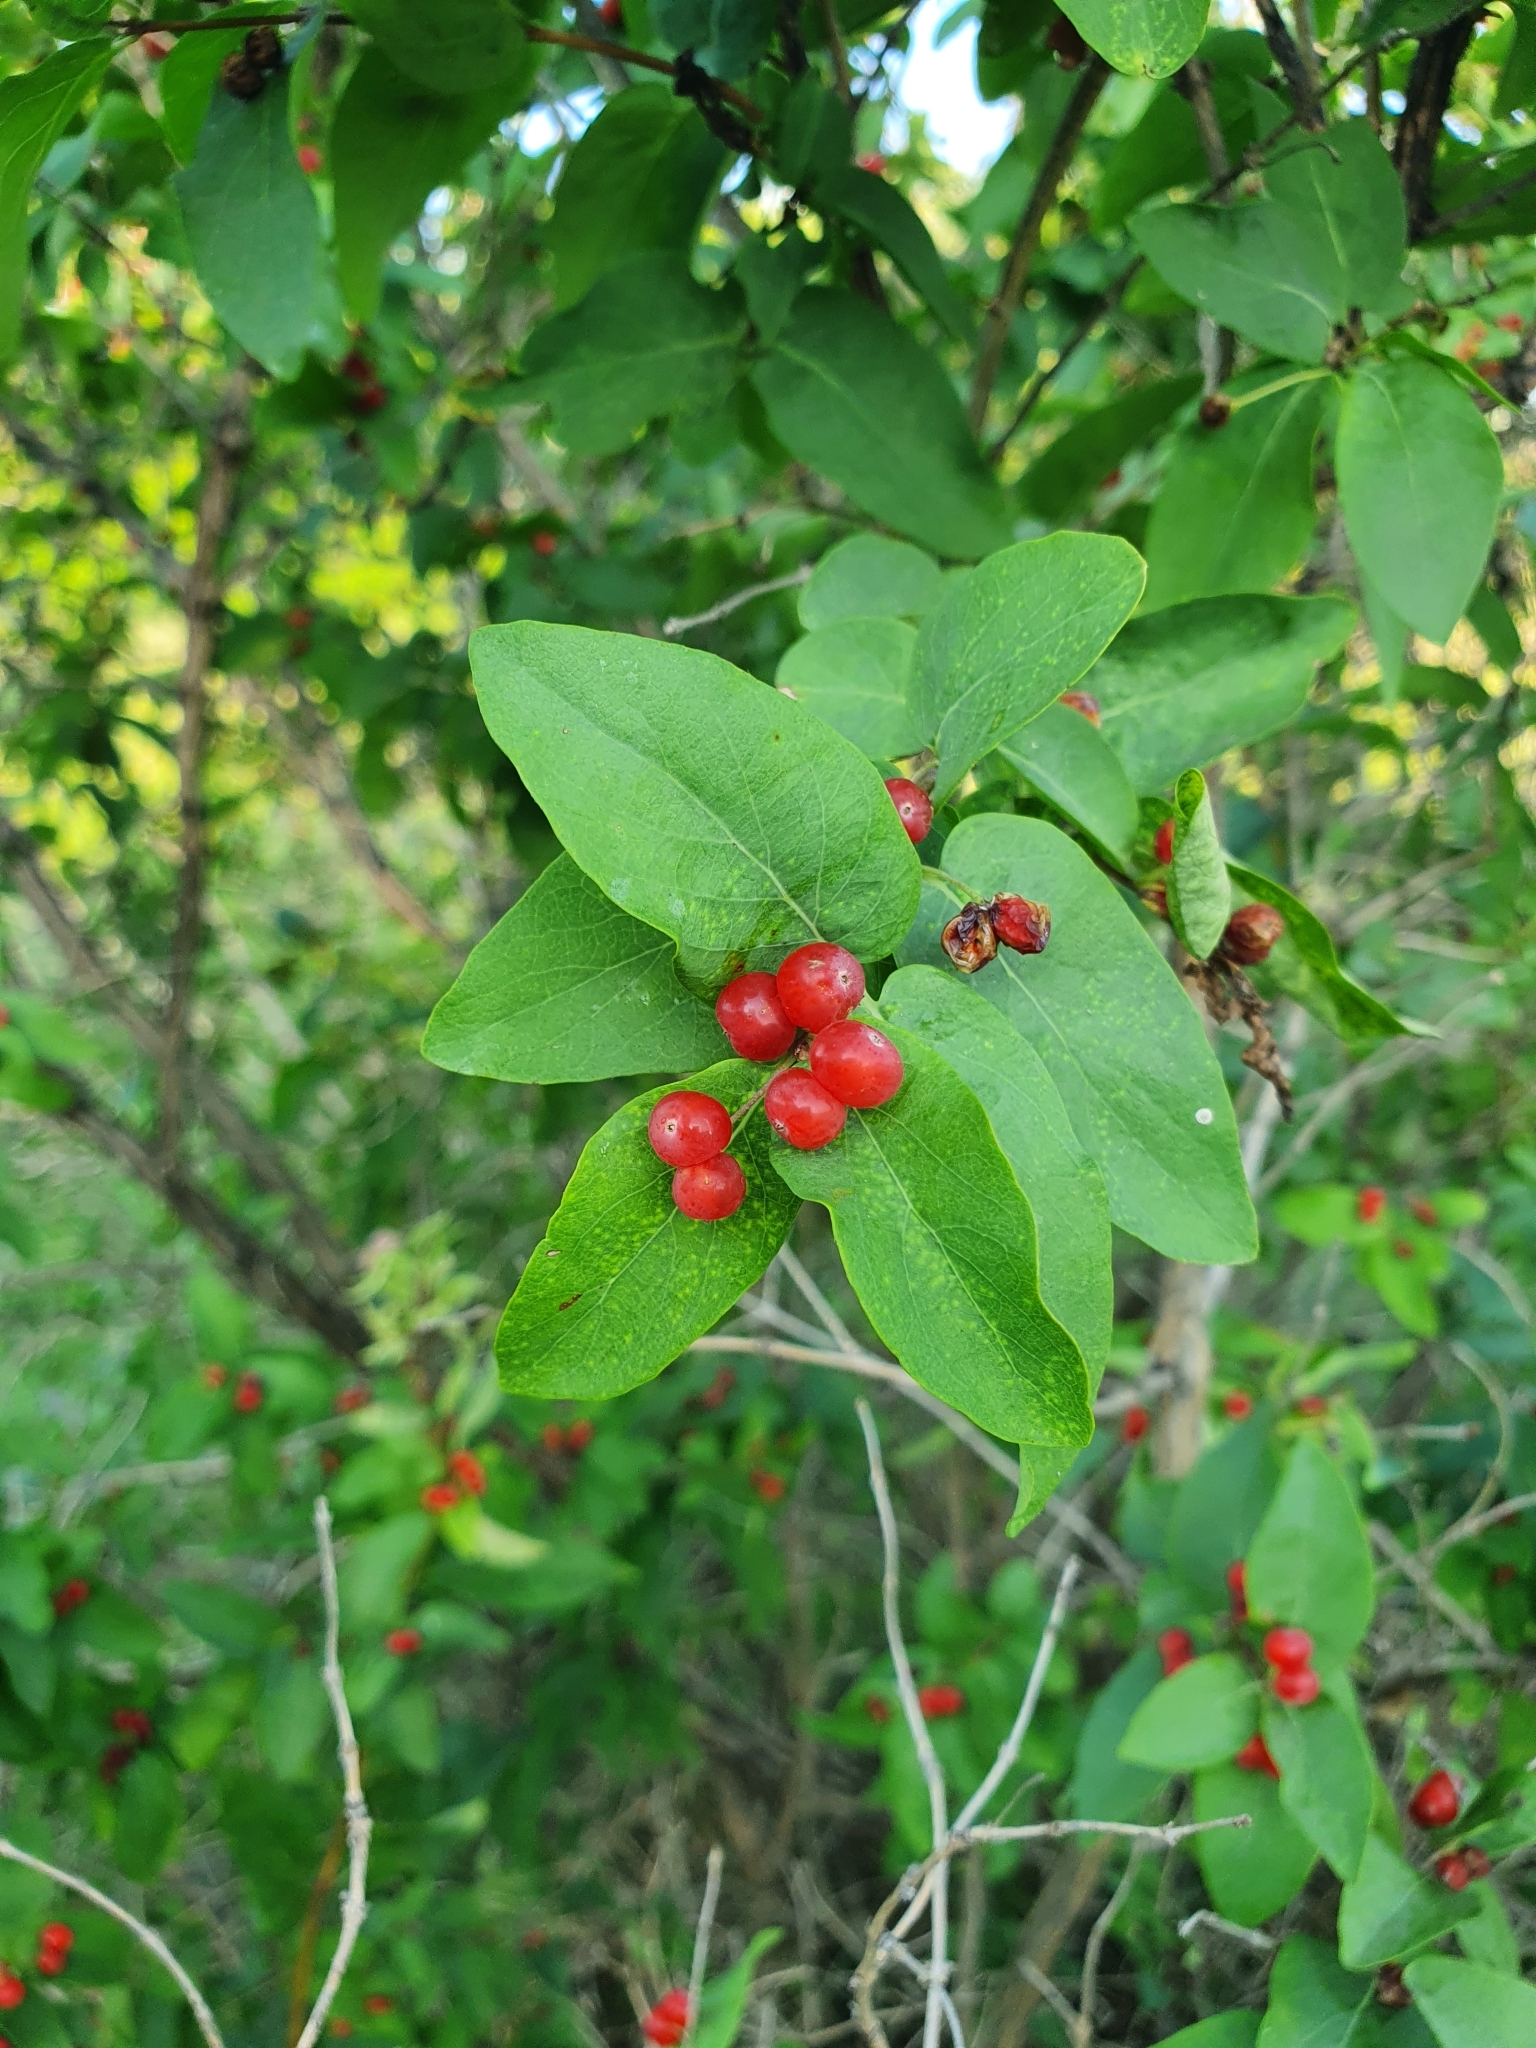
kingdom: Plantae
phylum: Tracheophyta
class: Magnoliopsida
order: Dipsacales
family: Caprifoliaceae
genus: Lonicera
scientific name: Lonicera tatarica
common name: Tatarian honeysuckle
